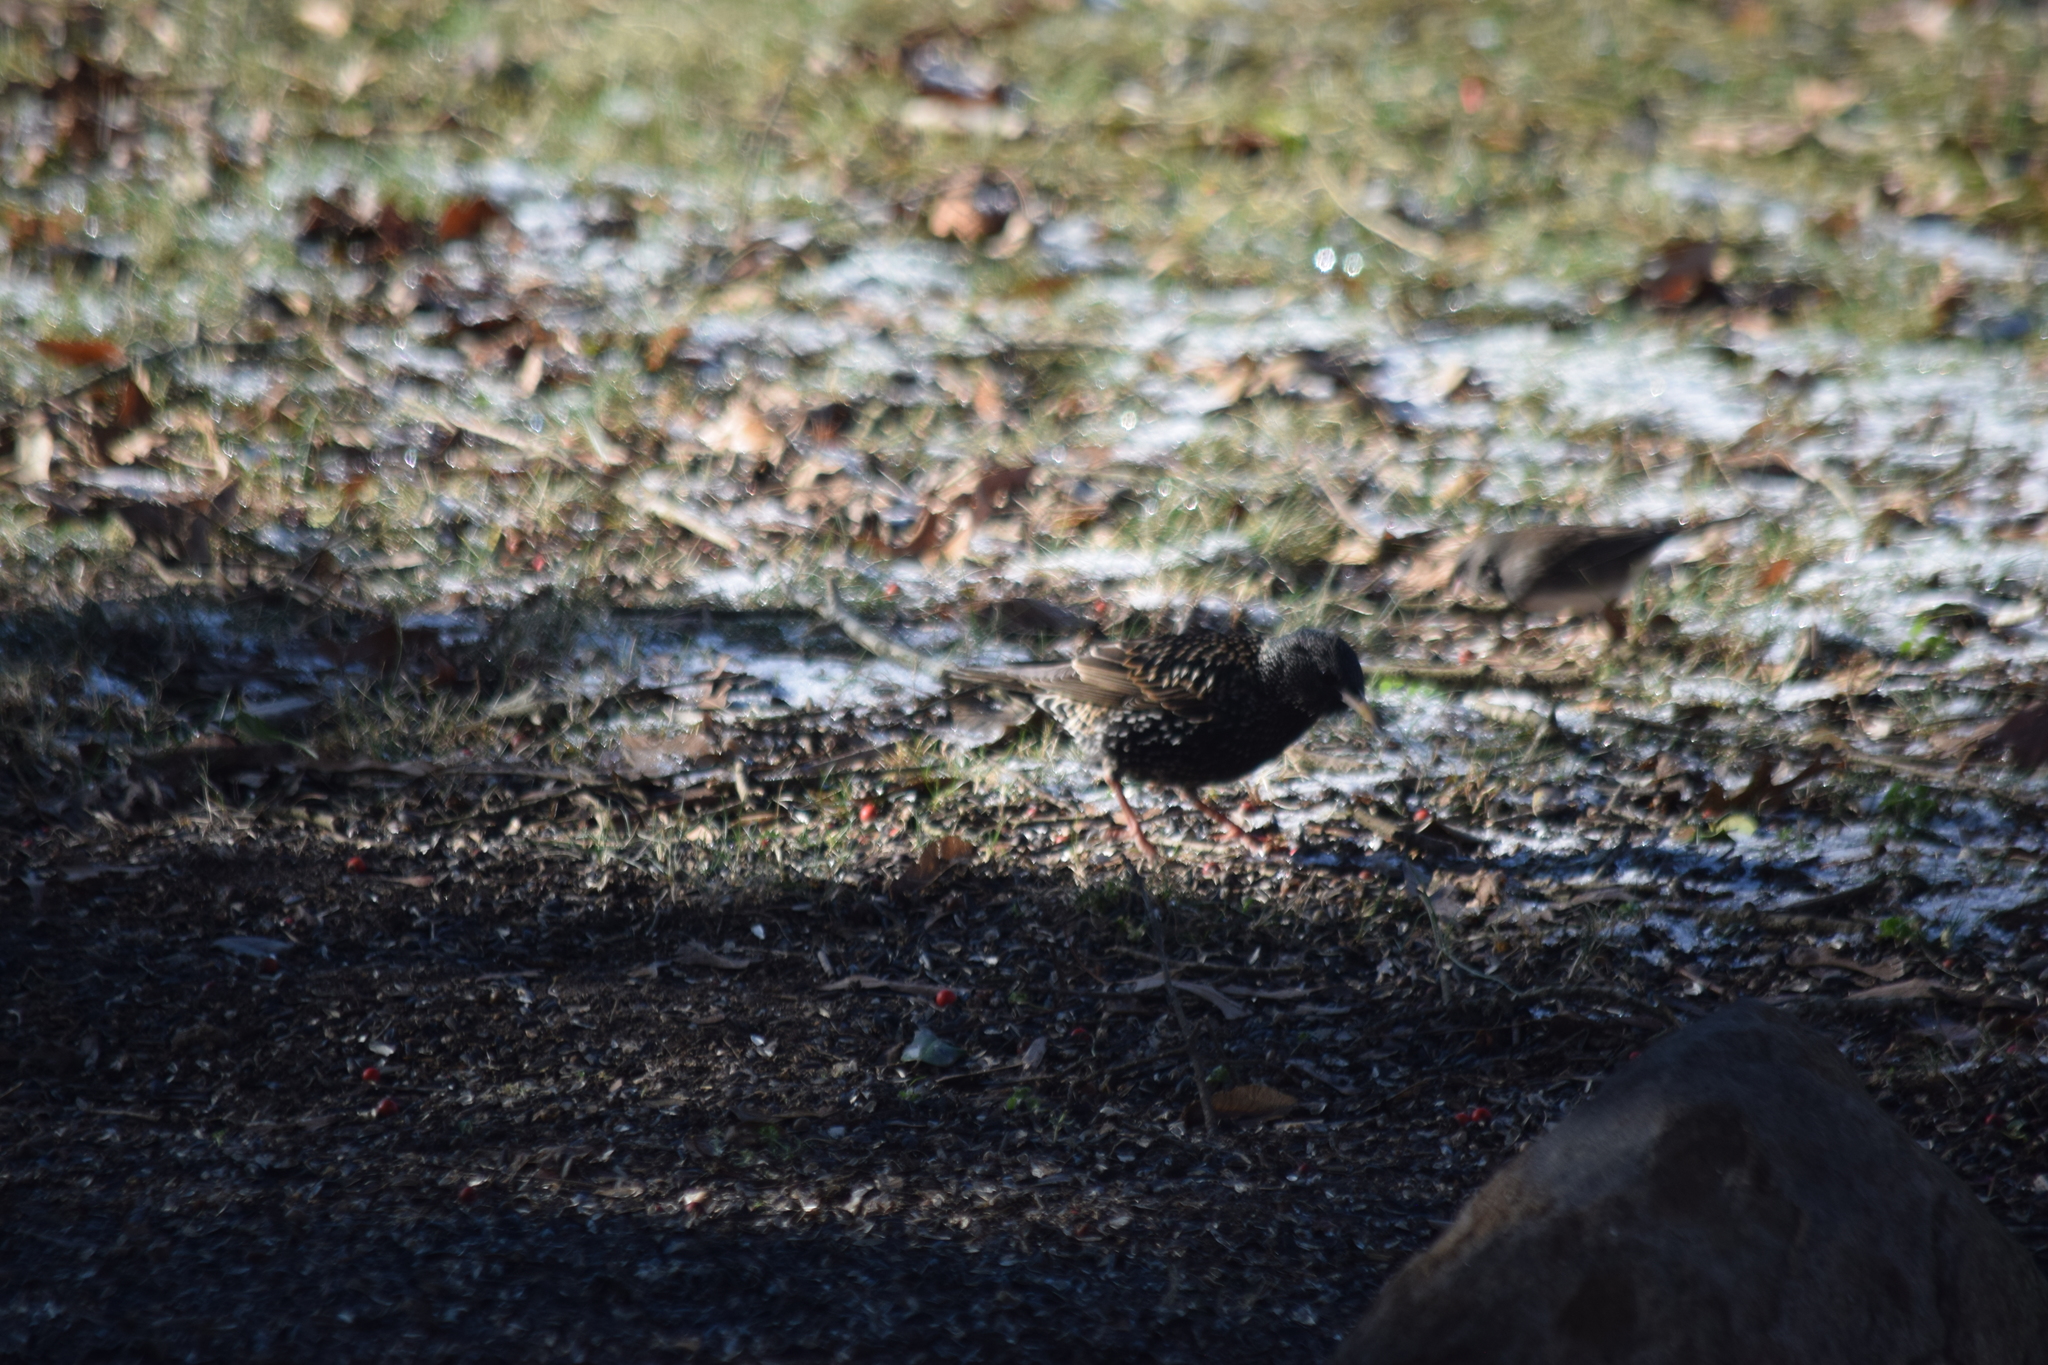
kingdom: Animalia
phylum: Chordata
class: Aves
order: Passeriformes
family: Sturnidae
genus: Sturnus
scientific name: Sturnus vulgaris
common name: Common starling
